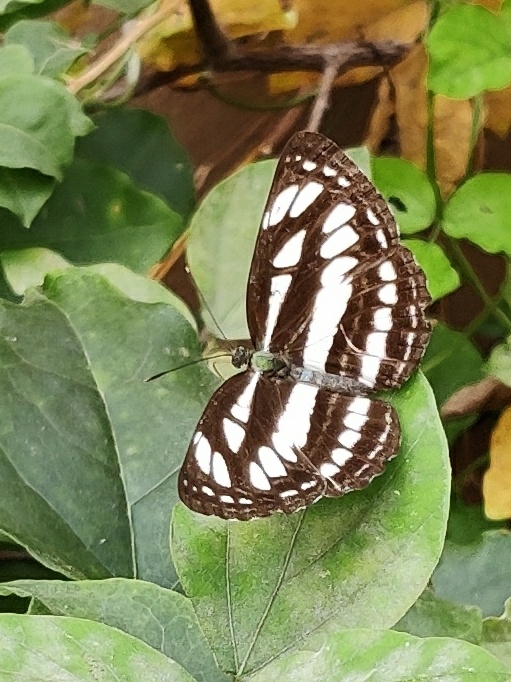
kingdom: Animalia
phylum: Arthropoda
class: Insecta
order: Lepidoptera
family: Nymphalidae
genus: Neptis
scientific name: Neptis hylas
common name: Common sailer
